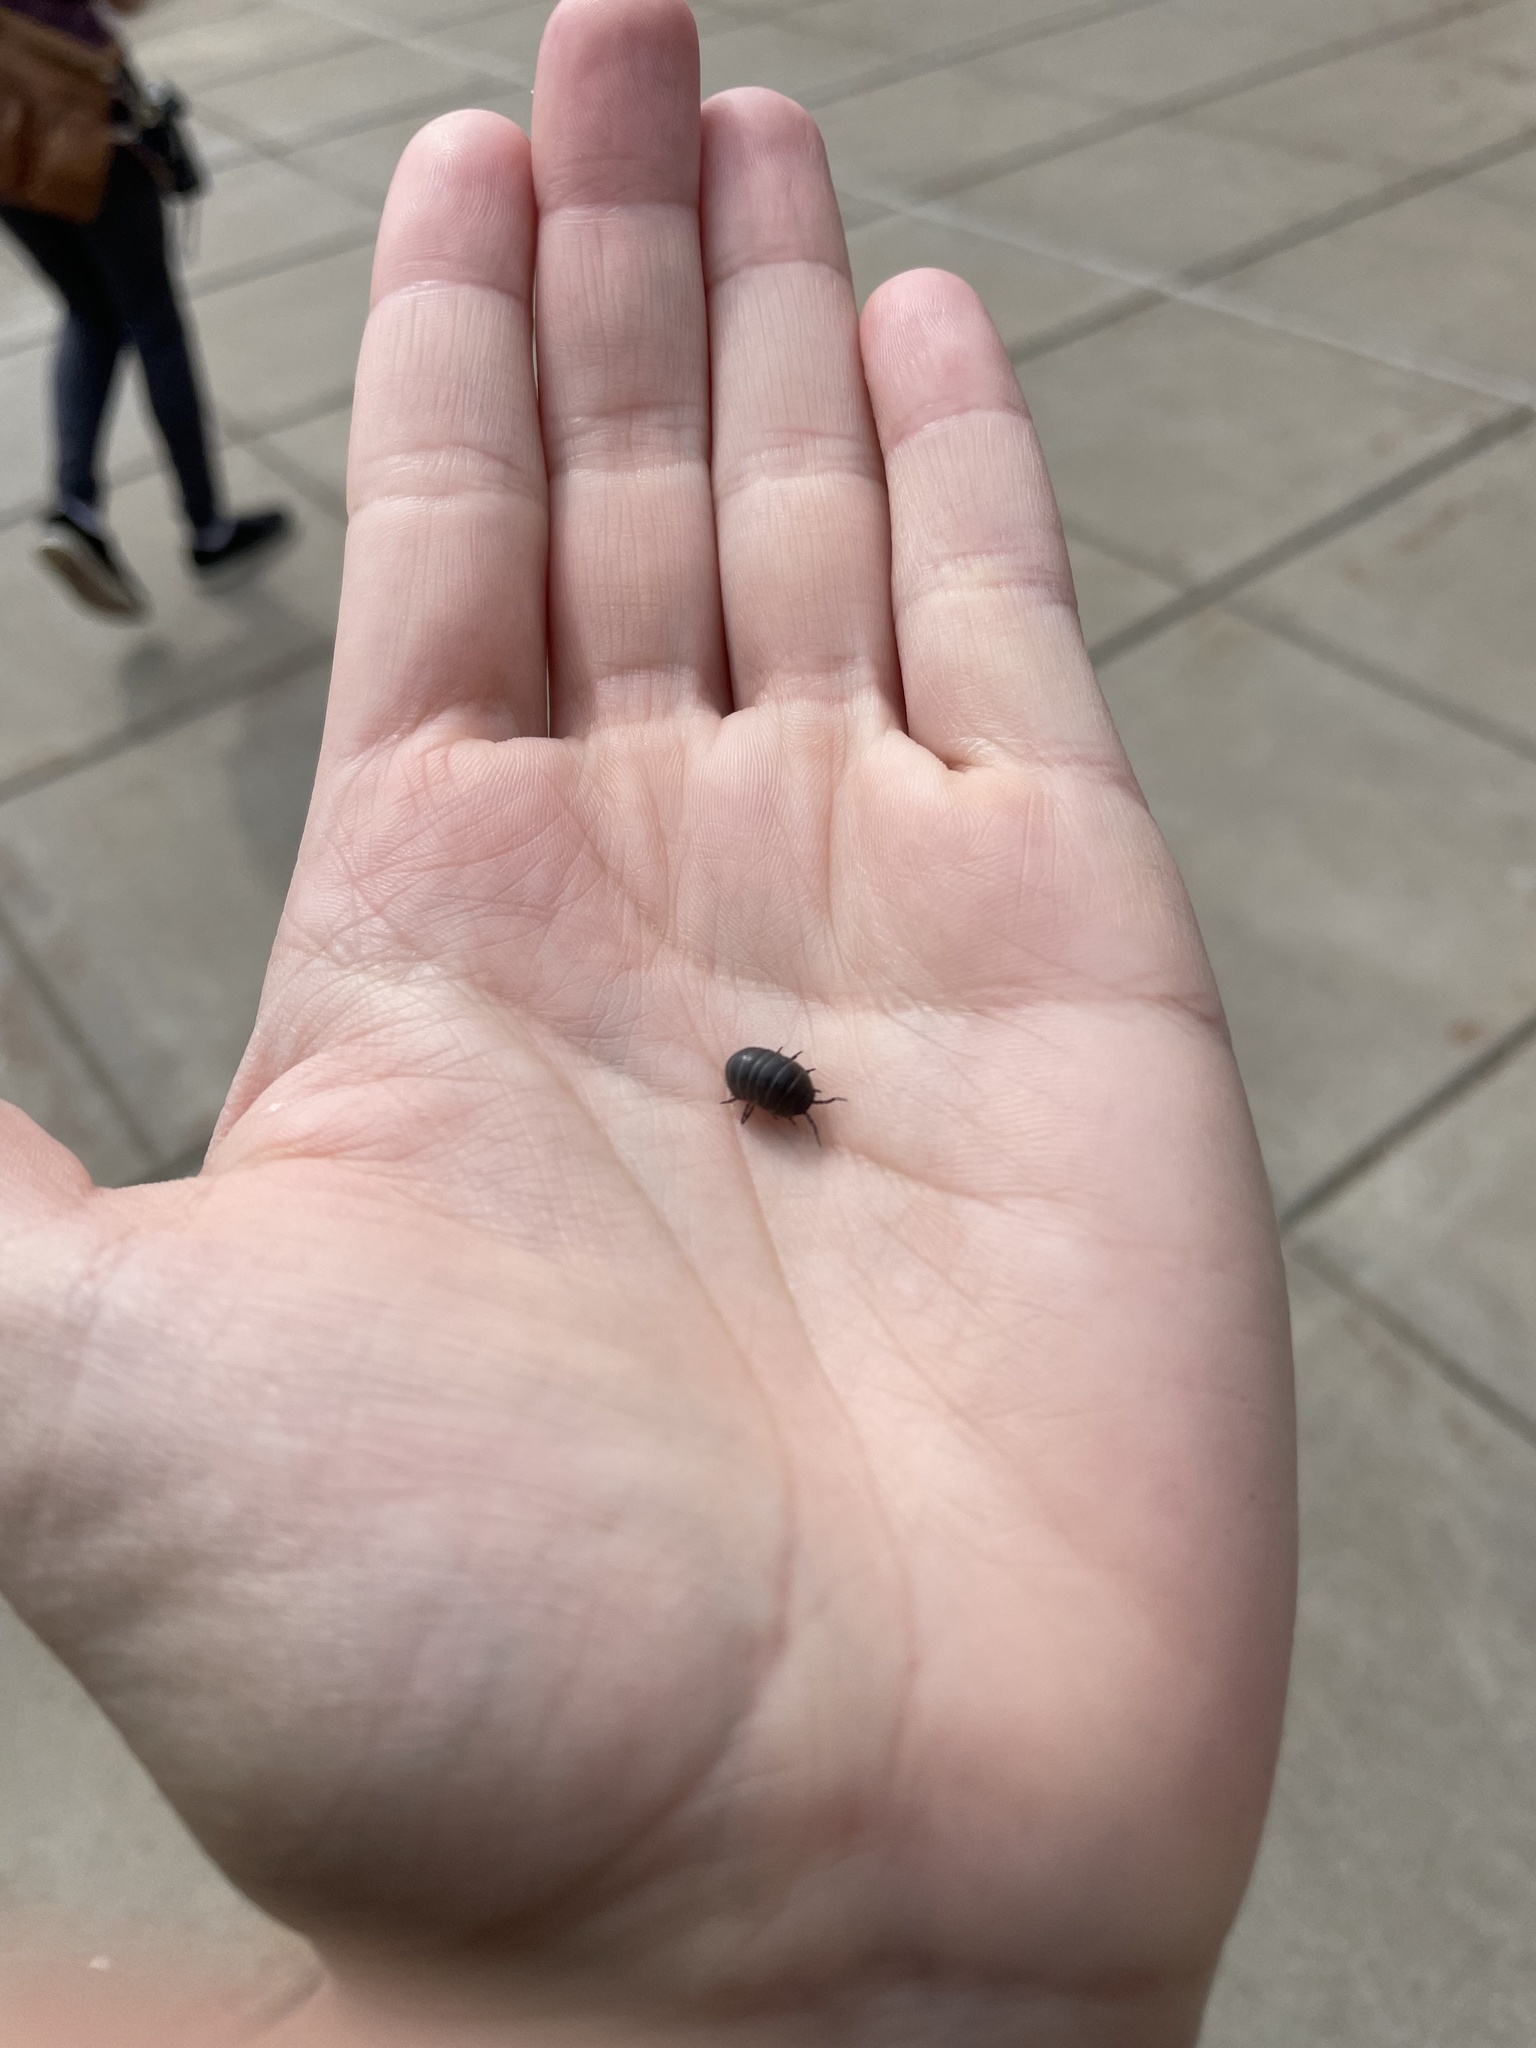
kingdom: Animalia
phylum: Arthropoda
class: Malacostraca
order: Isopoda
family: Armadillidiidae
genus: Armadillidium
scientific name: Armadillidium vulgare
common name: Common pill woodlouse
